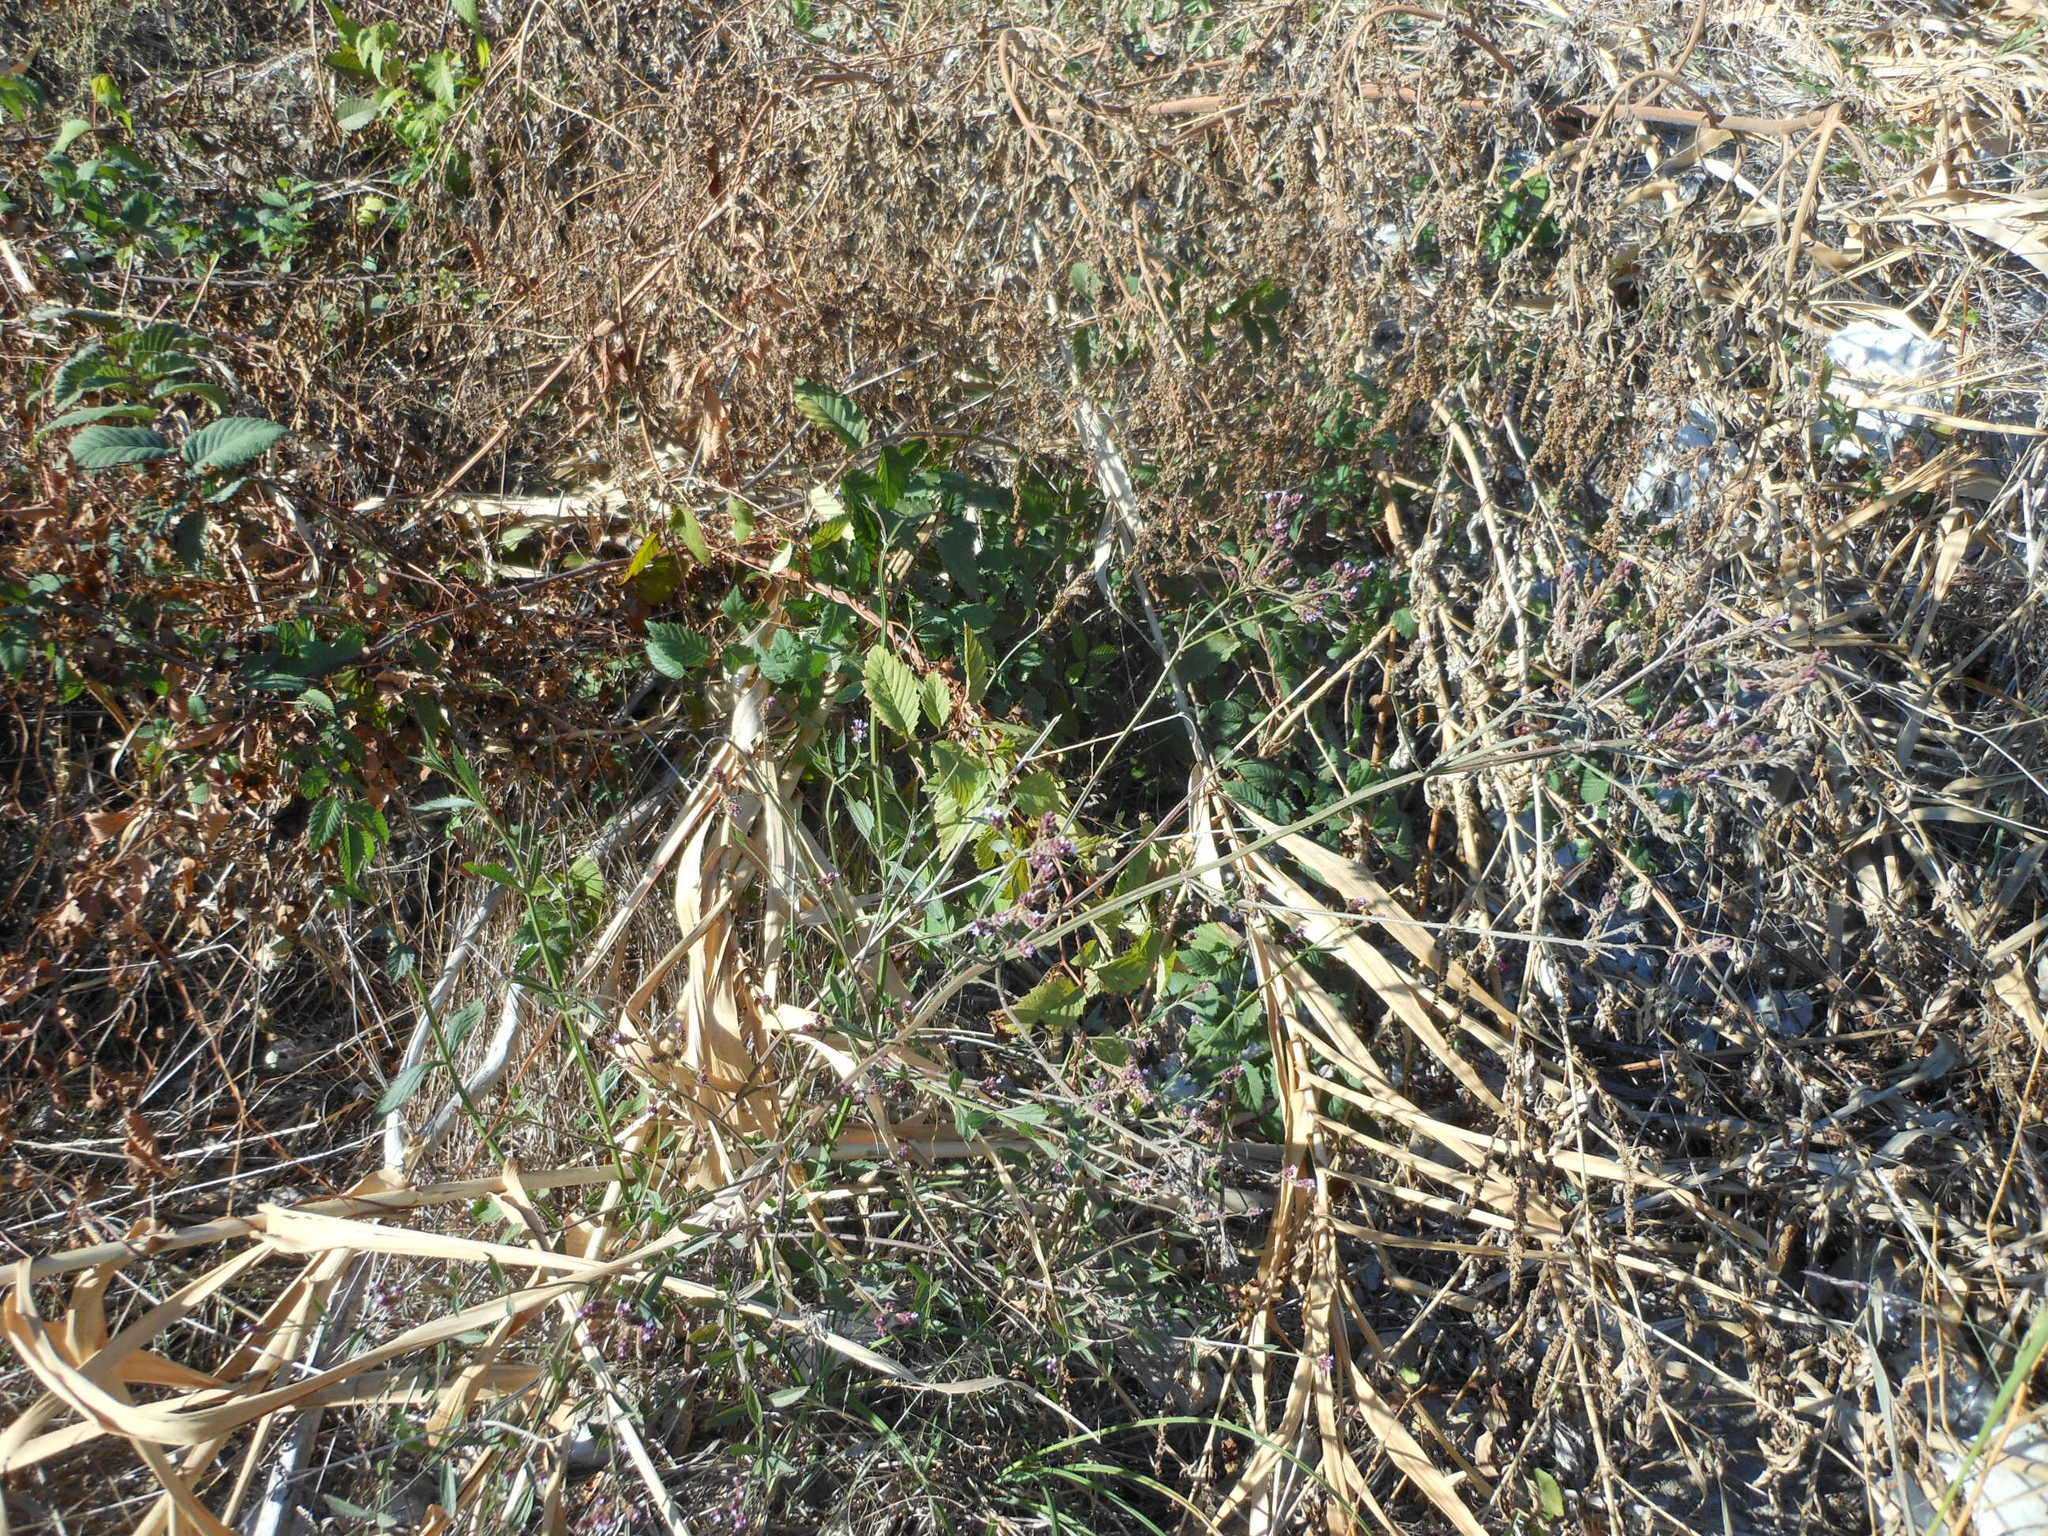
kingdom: Plantae
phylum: Tracheophyta
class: Magnoliopsida
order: Lamiales
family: Verbenaceae
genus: Verbena
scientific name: Verbena brasiliensis
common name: Brazilian vervain
